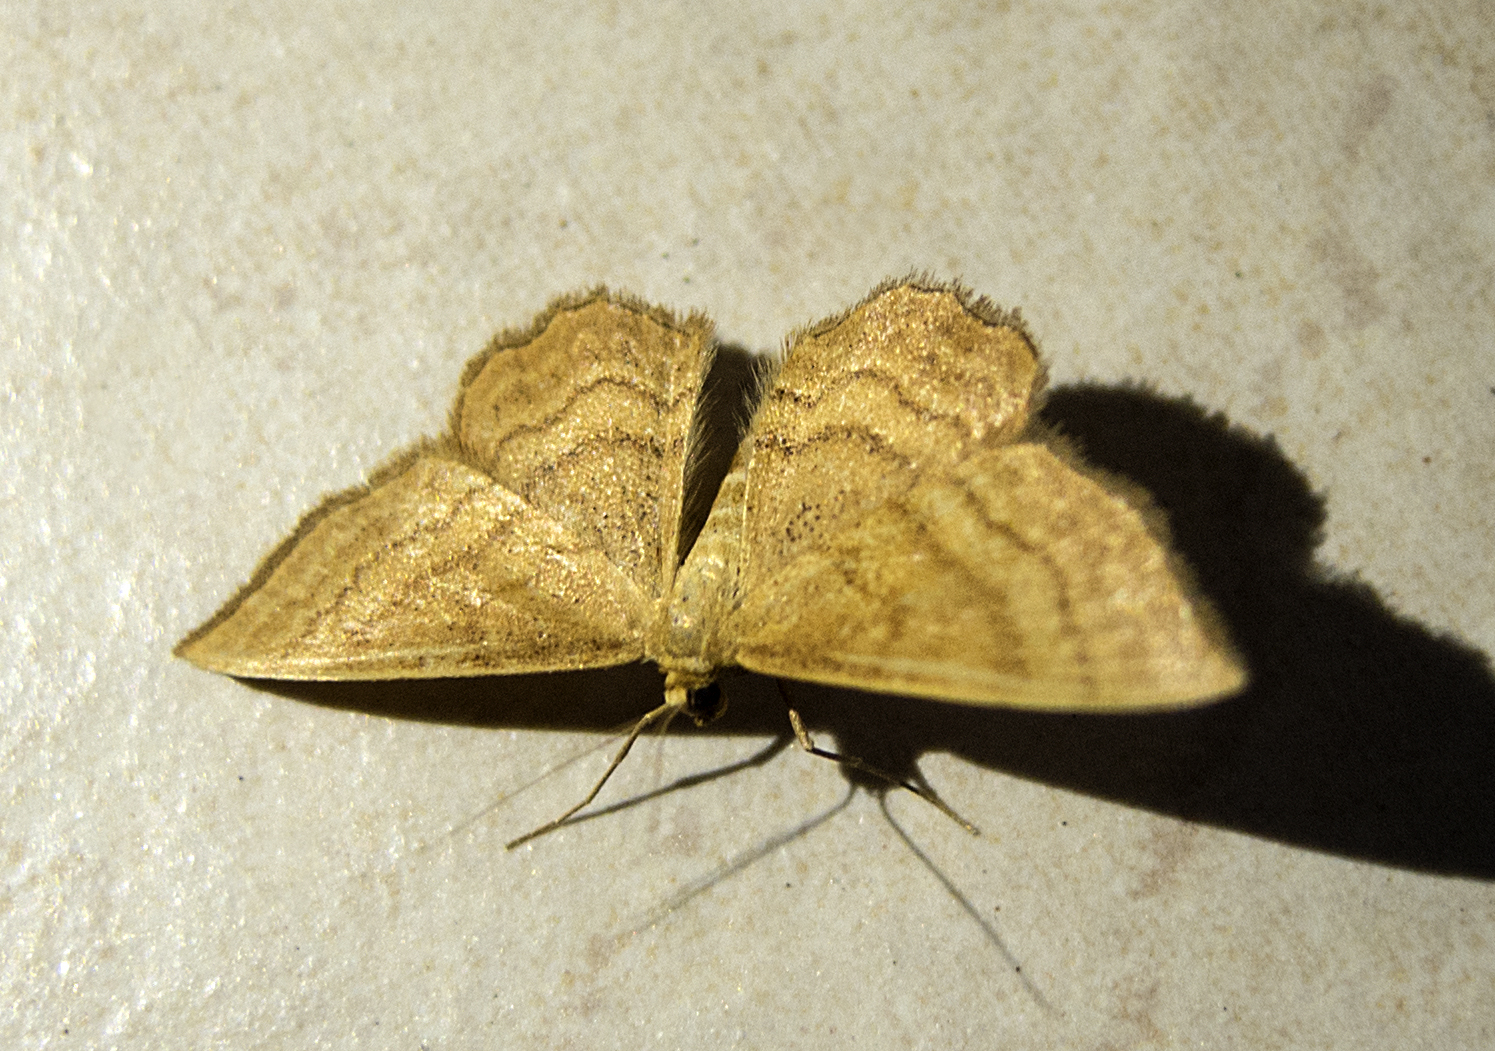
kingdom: Animalia
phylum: Arthropoda
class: Insecta
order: Lepidoptera
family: Geometridae
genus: Idaea
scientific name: Idaea ochrata
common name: Bright wave
